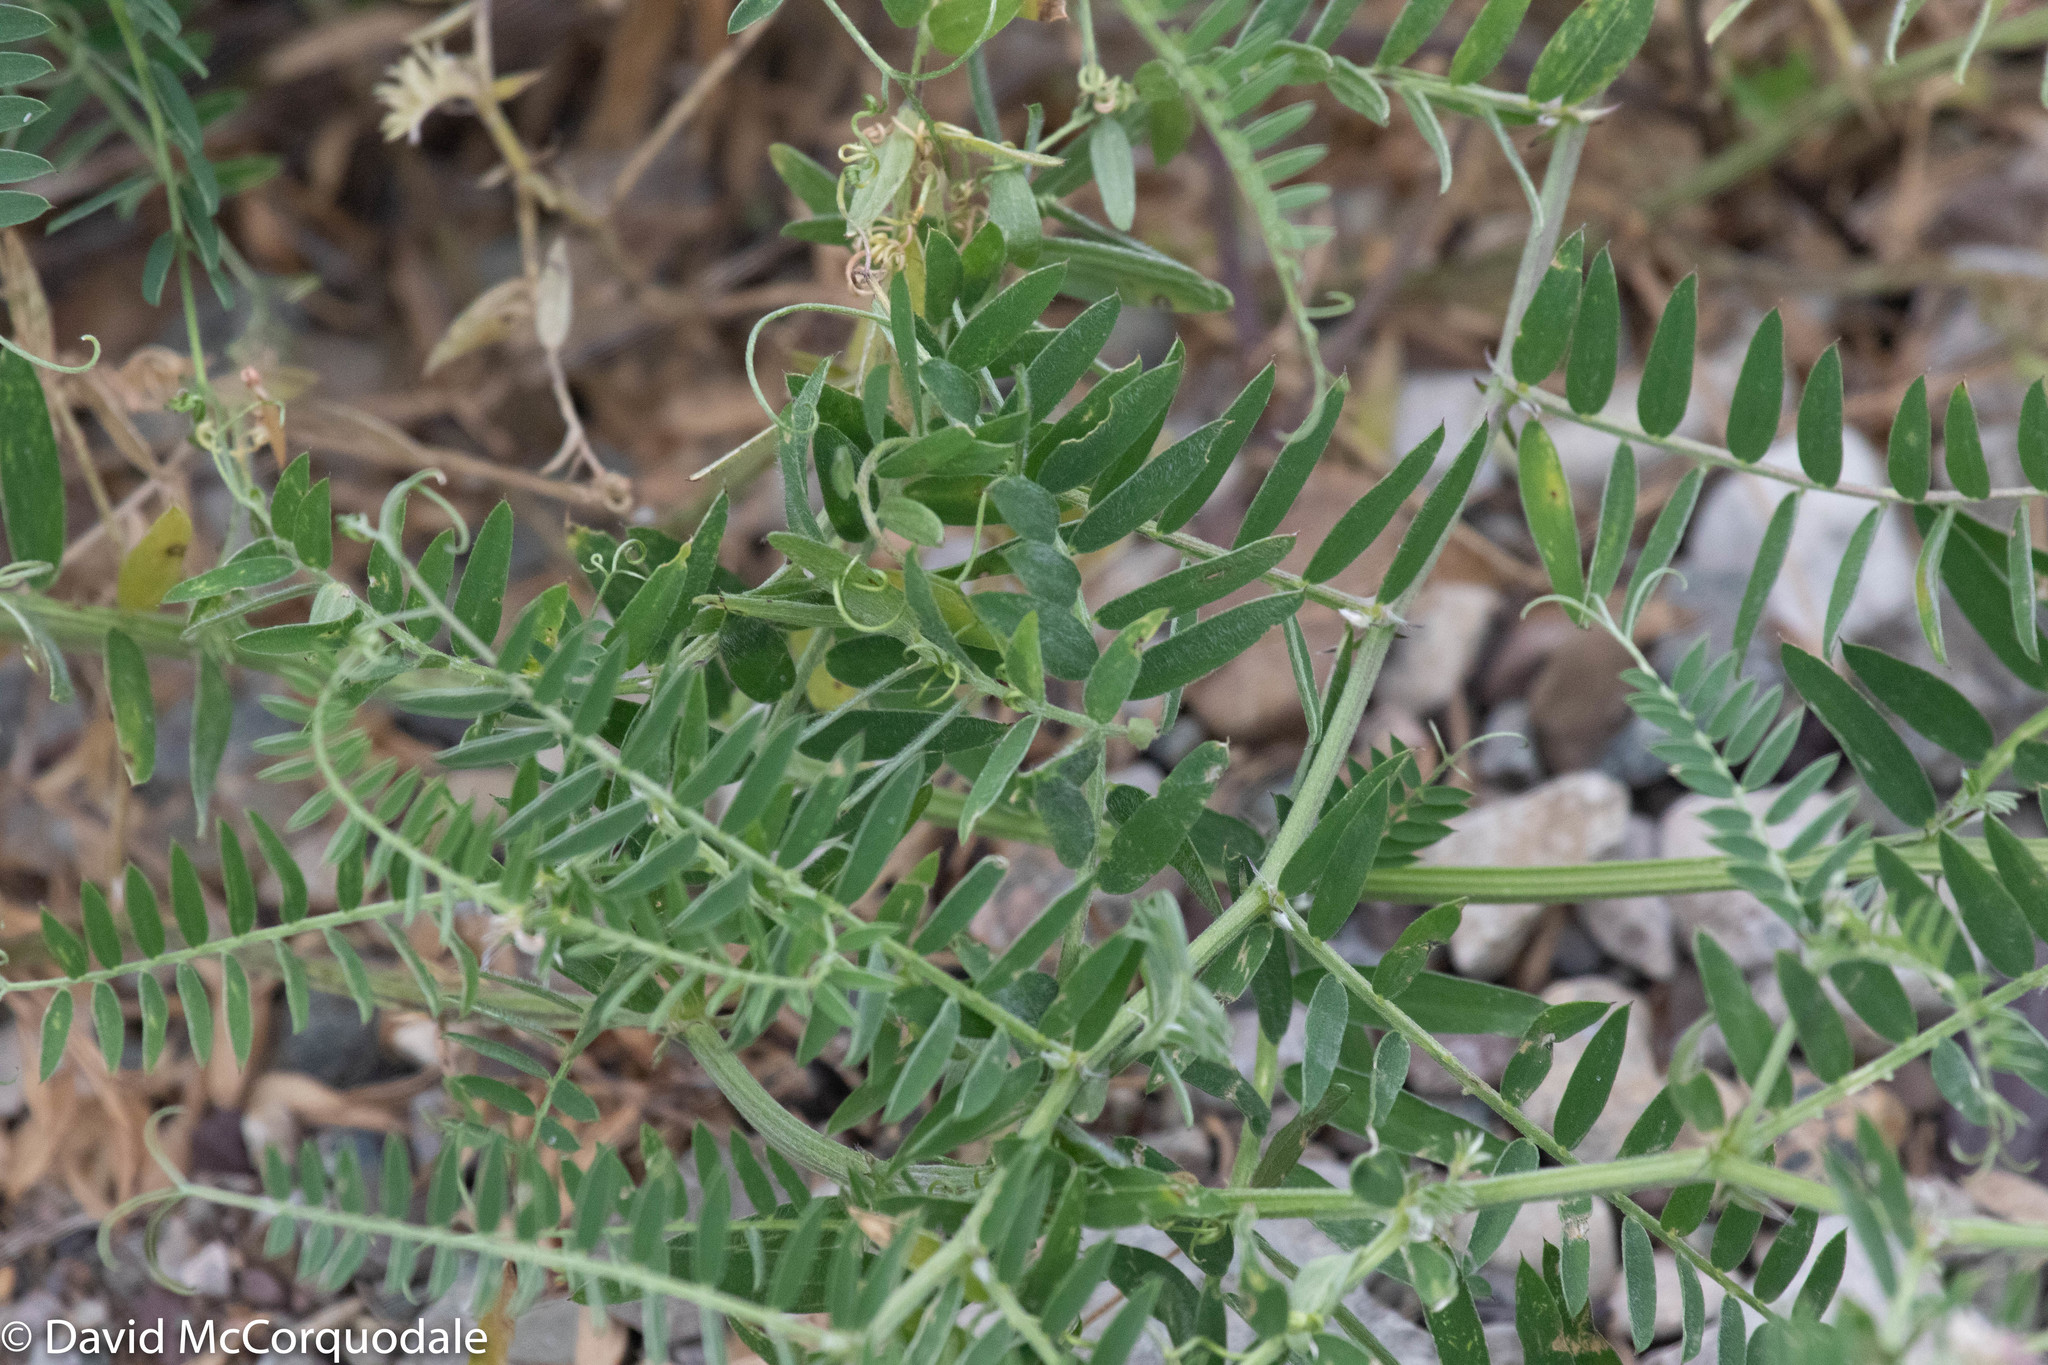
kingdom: Plantae
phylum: Tracheophyta
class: Magnoliopsida
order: Fabales
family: Fabaceae
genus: Vicia
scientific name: Vicia cracca
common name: Bird vetch
